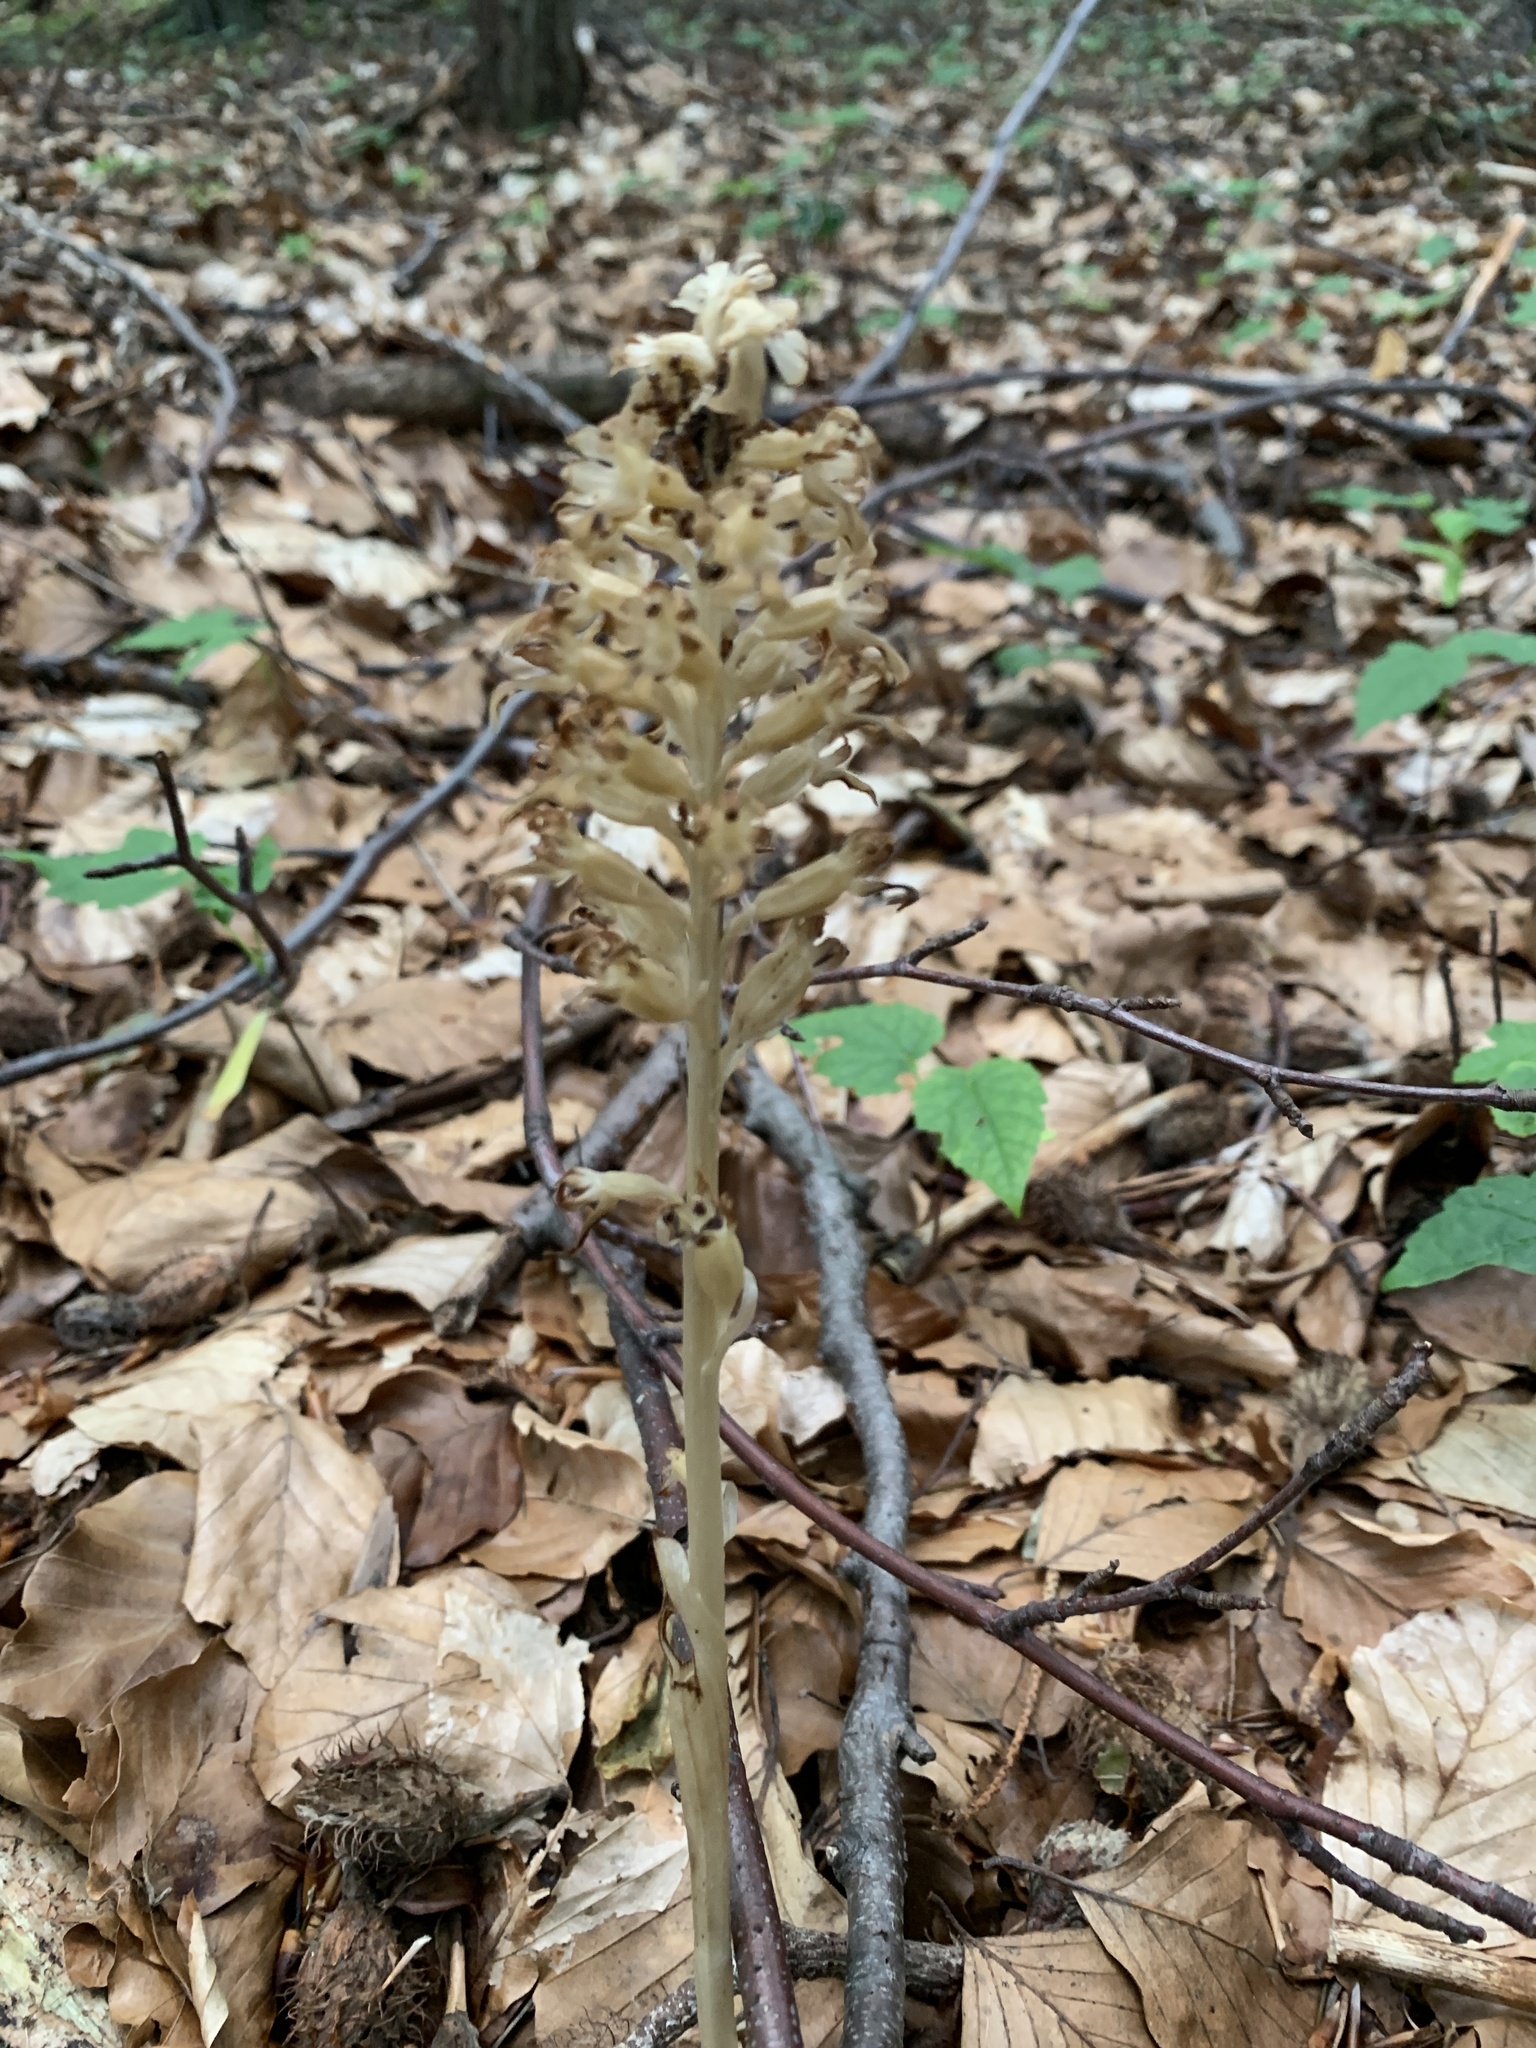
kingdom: Plantae
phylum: Tracheophyta
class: Liliopsida
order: Asparagales
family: Orchidaceae
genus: Neottia
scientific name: Neottia nidus-avis
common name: Bird's-nest orchid
